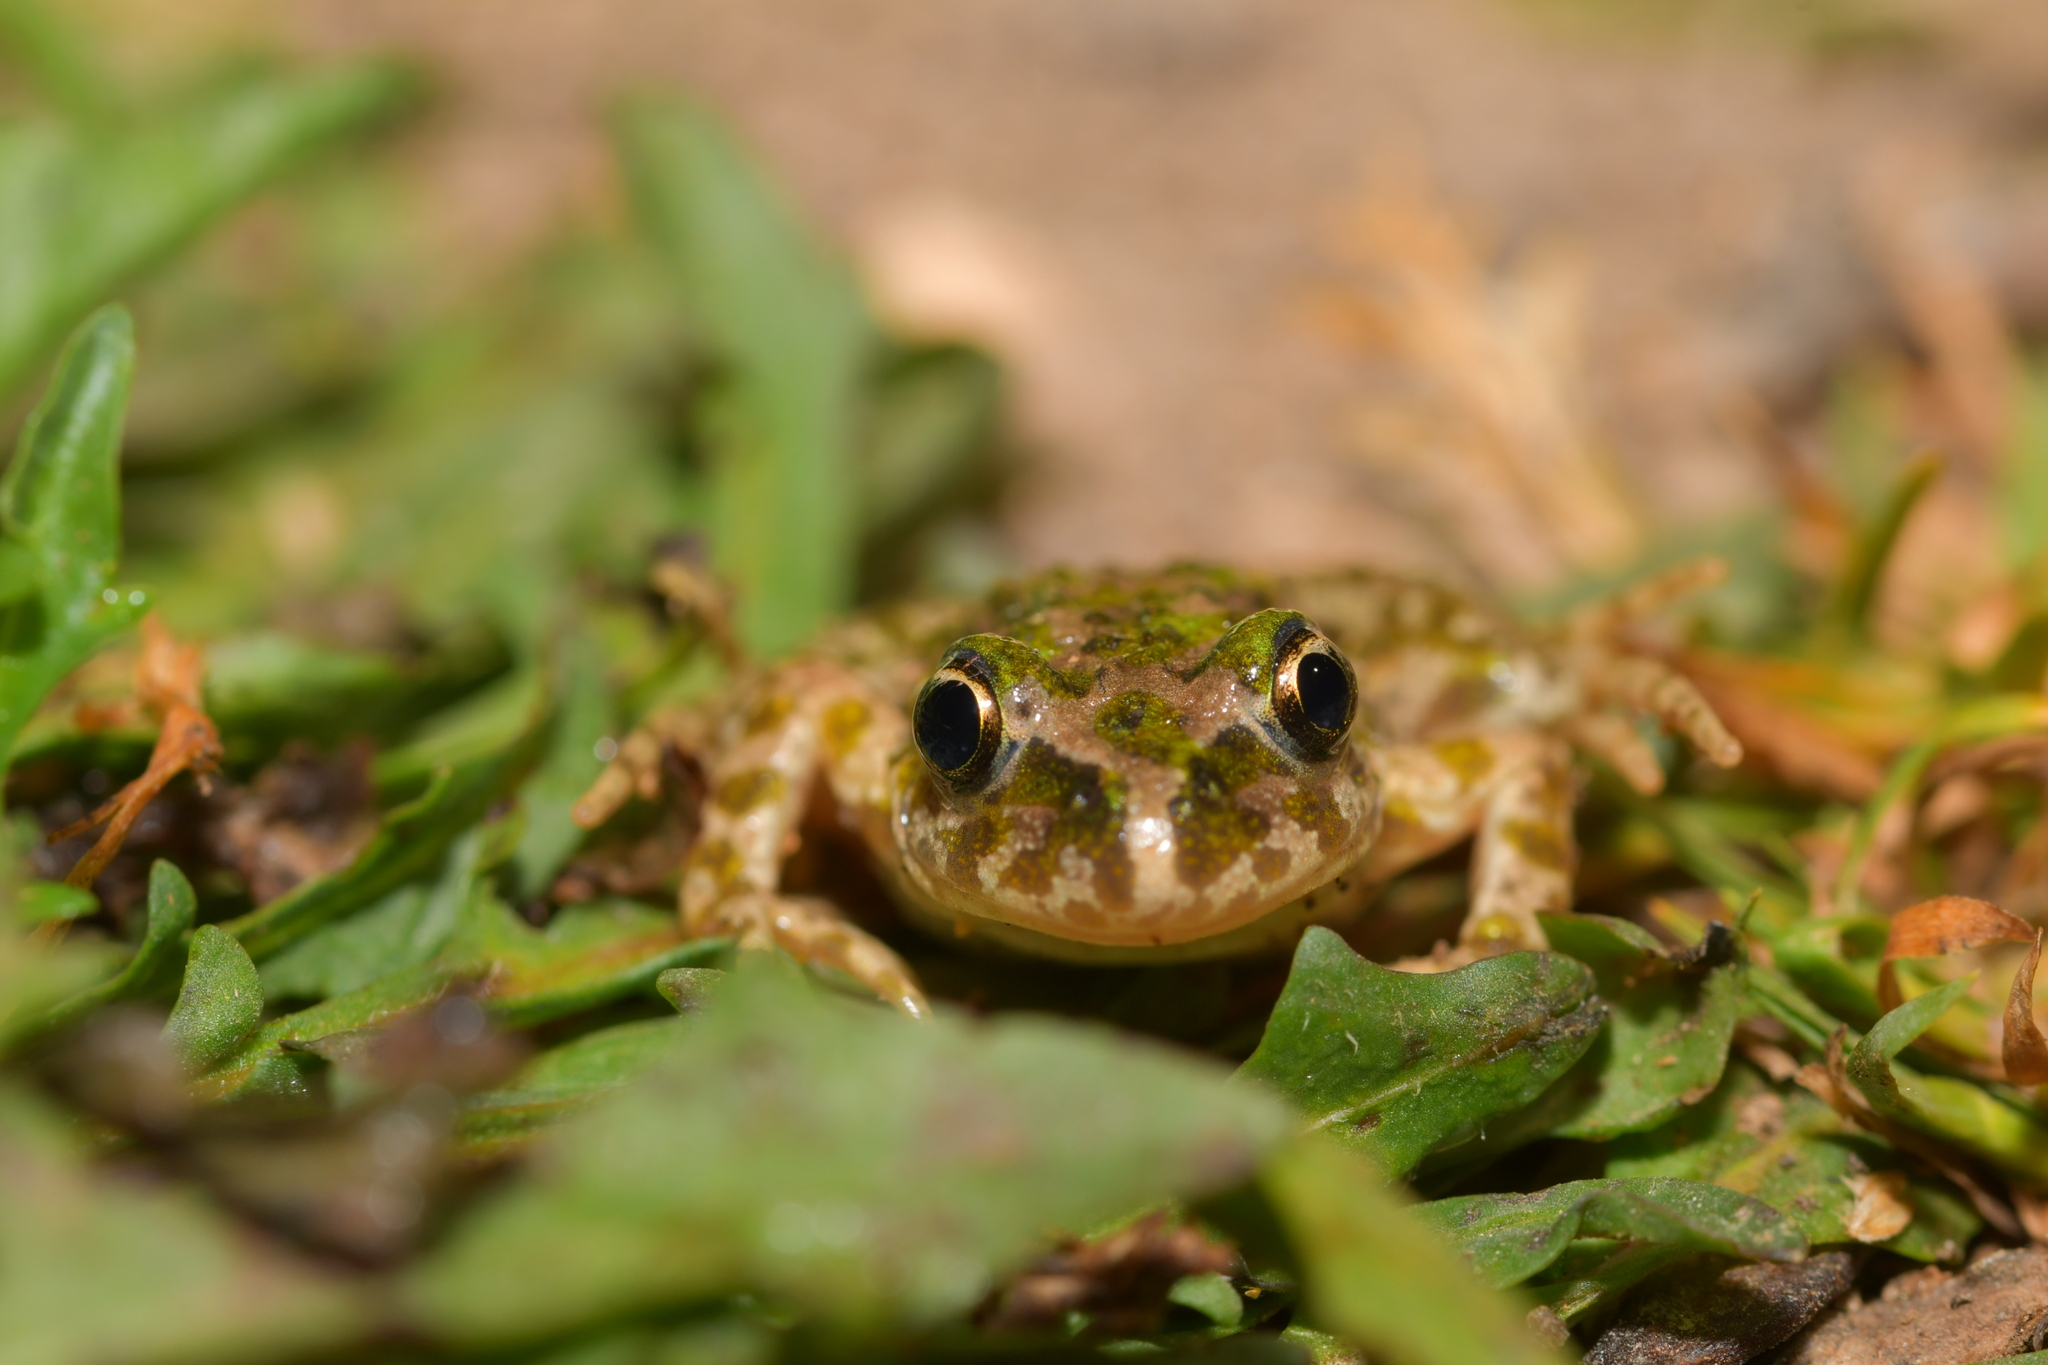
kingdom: Animalia
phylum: Chordata
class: Amphibia
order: Anura
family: Pelodytidae
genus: Pelodytes
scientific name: Pelodytes atlanticus
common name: Lusitanian parsley frog
